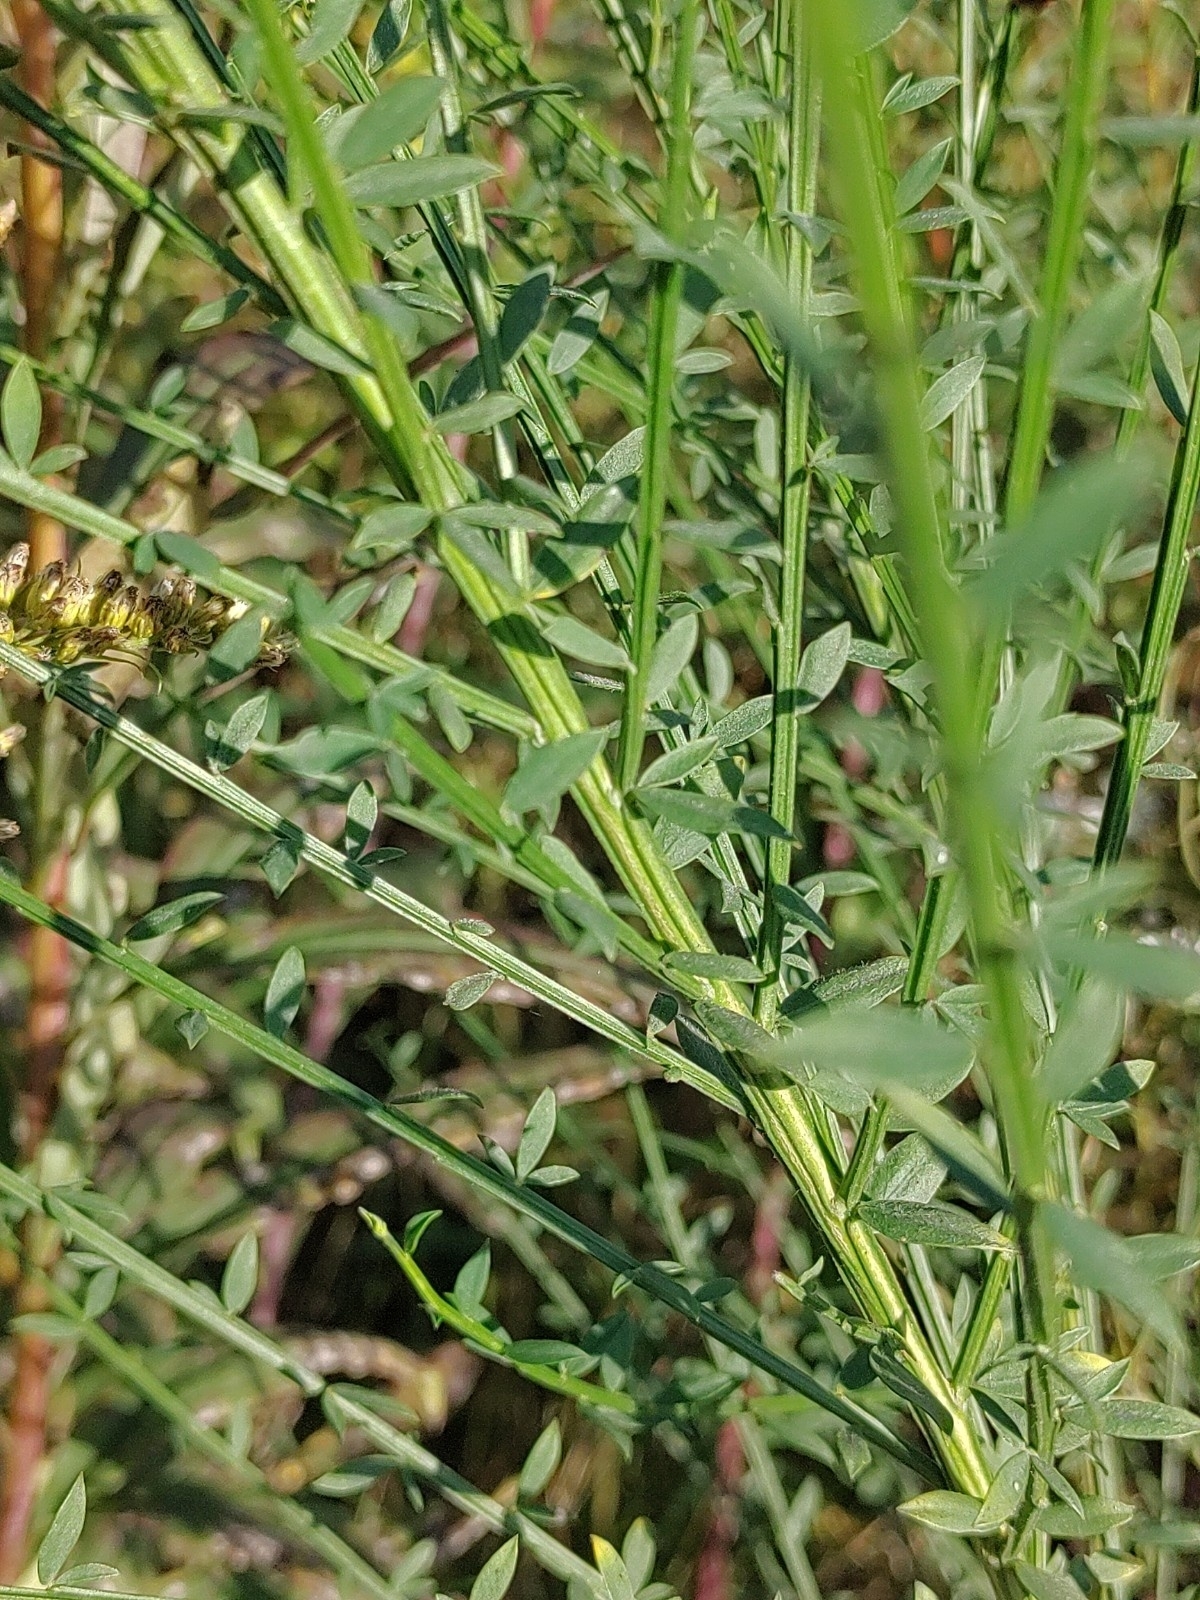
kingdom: Plantae
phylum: Tracheophyta
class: Magnoliopsida
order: Fabales
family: Fabaceae
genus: Cytisus
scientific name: Cytisus scoparius
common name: Scotch broom
